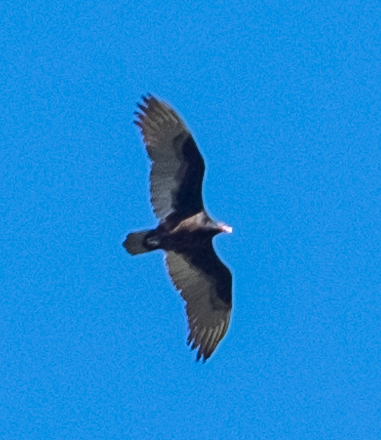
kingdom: Animalia
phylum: Chordata
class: Aves
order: Accipitriformes
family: Cathartidae
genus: Cathartes
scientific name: Cathartes aura
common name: Turkey vulture
